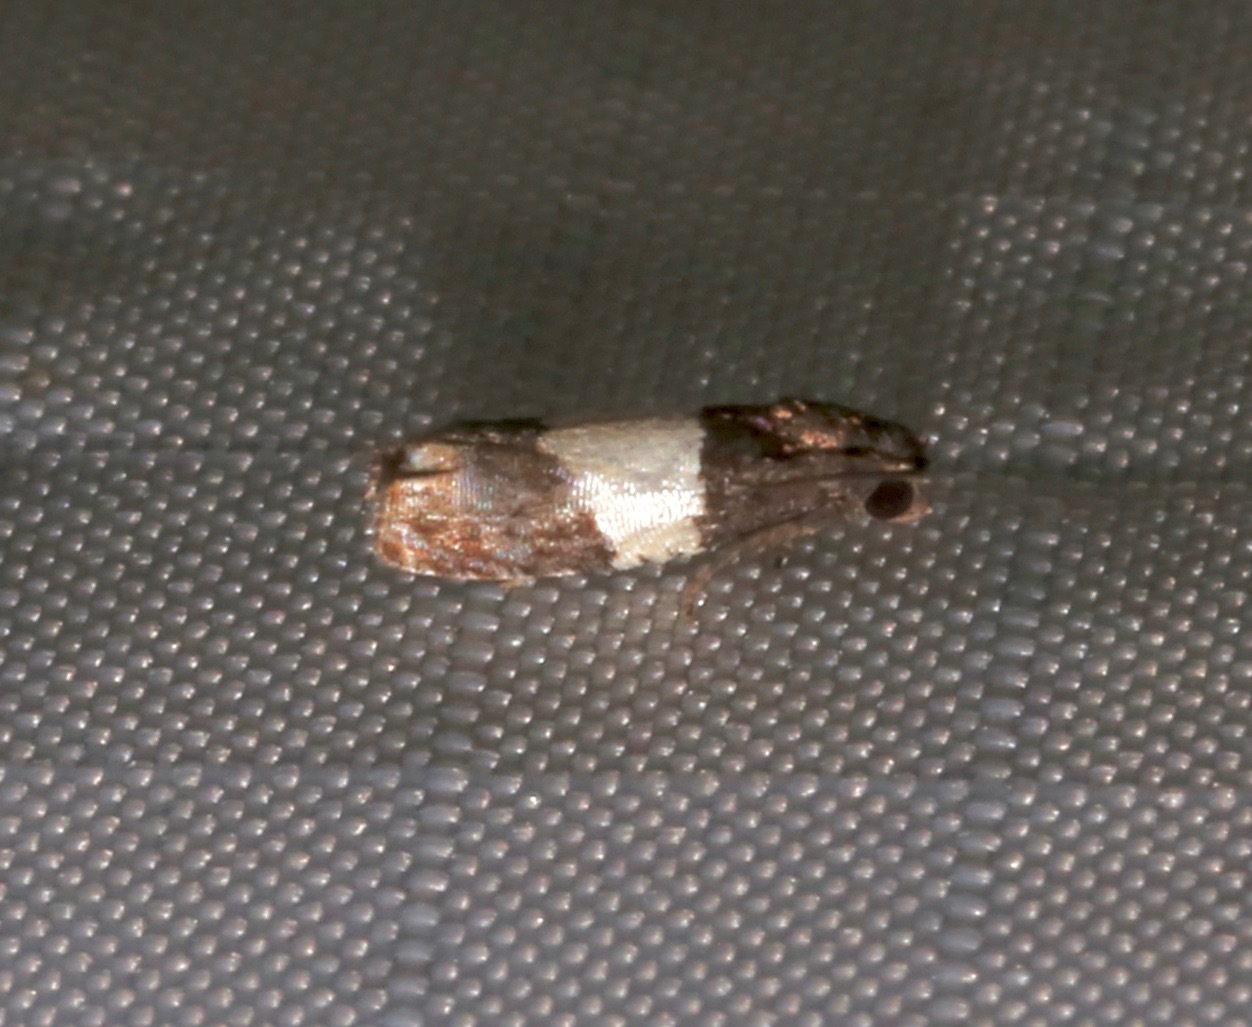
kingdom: Animalia
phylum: Arthropoda
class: Insecta
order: Lepidoptera
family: Tortricidae
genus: Epiblema
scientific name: Epiblema tripartitana
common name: Three-parted epiblema moth
